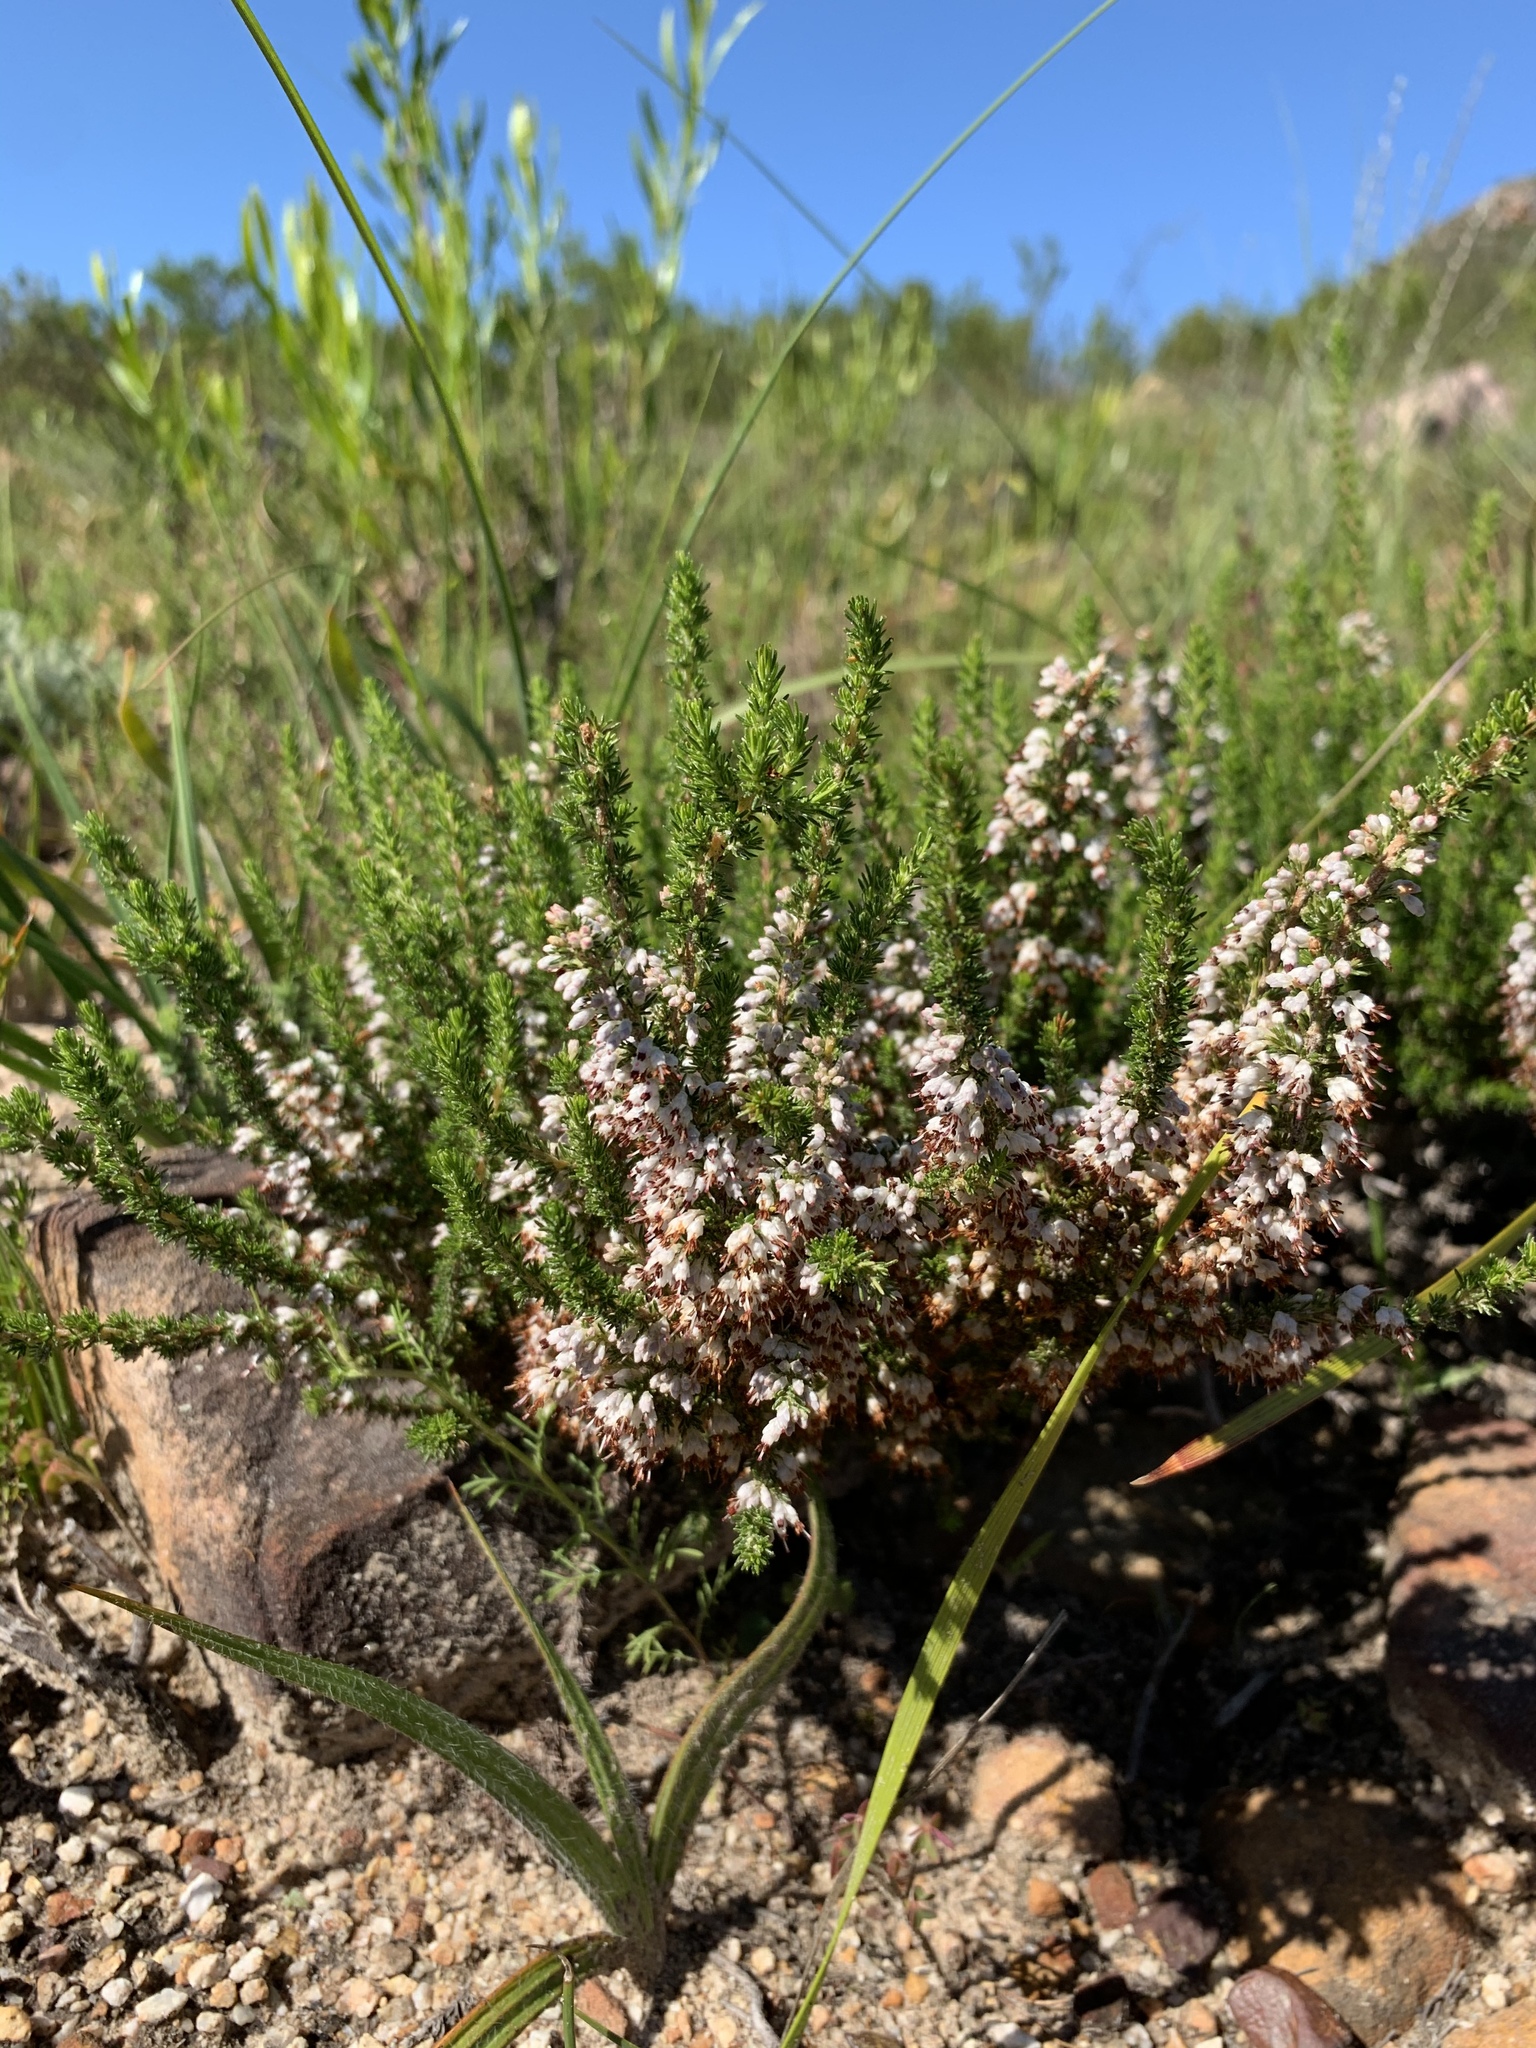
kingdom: Plantae
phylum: Tracheophyta
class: Magnoliopsida
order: Ericales
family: Ericaceae
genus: Erica
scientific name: Erica imbricata
